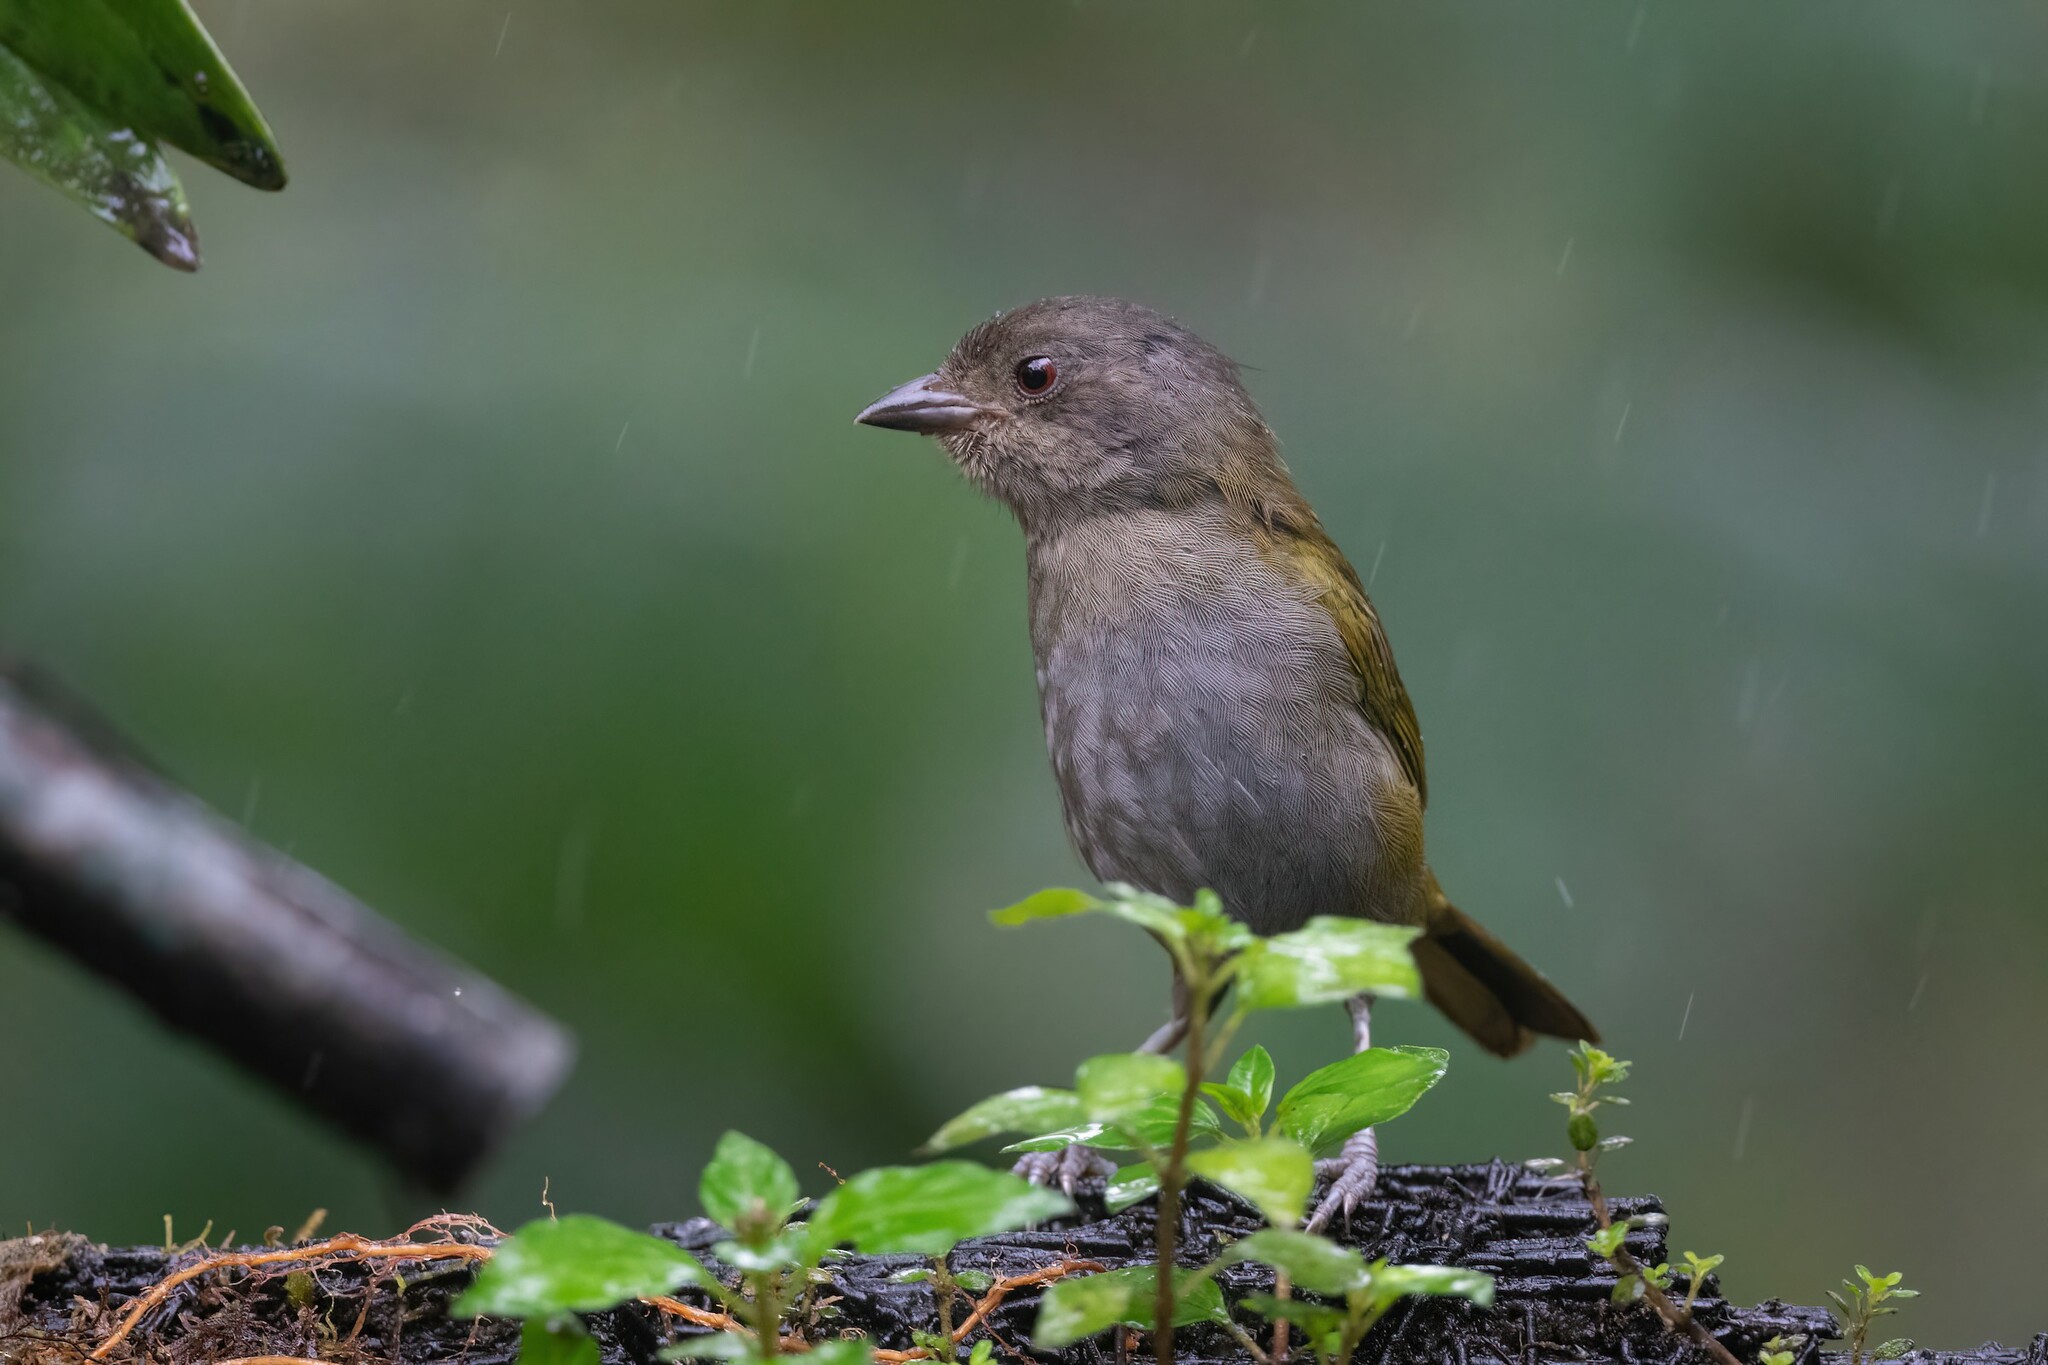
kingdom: Animalia
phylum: Chordata
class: Aves
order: Passeriformes
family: Passerellidae
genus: Chlorospingus
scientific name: Chlorospingus semifuscus
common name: Dusky bush-tanager
